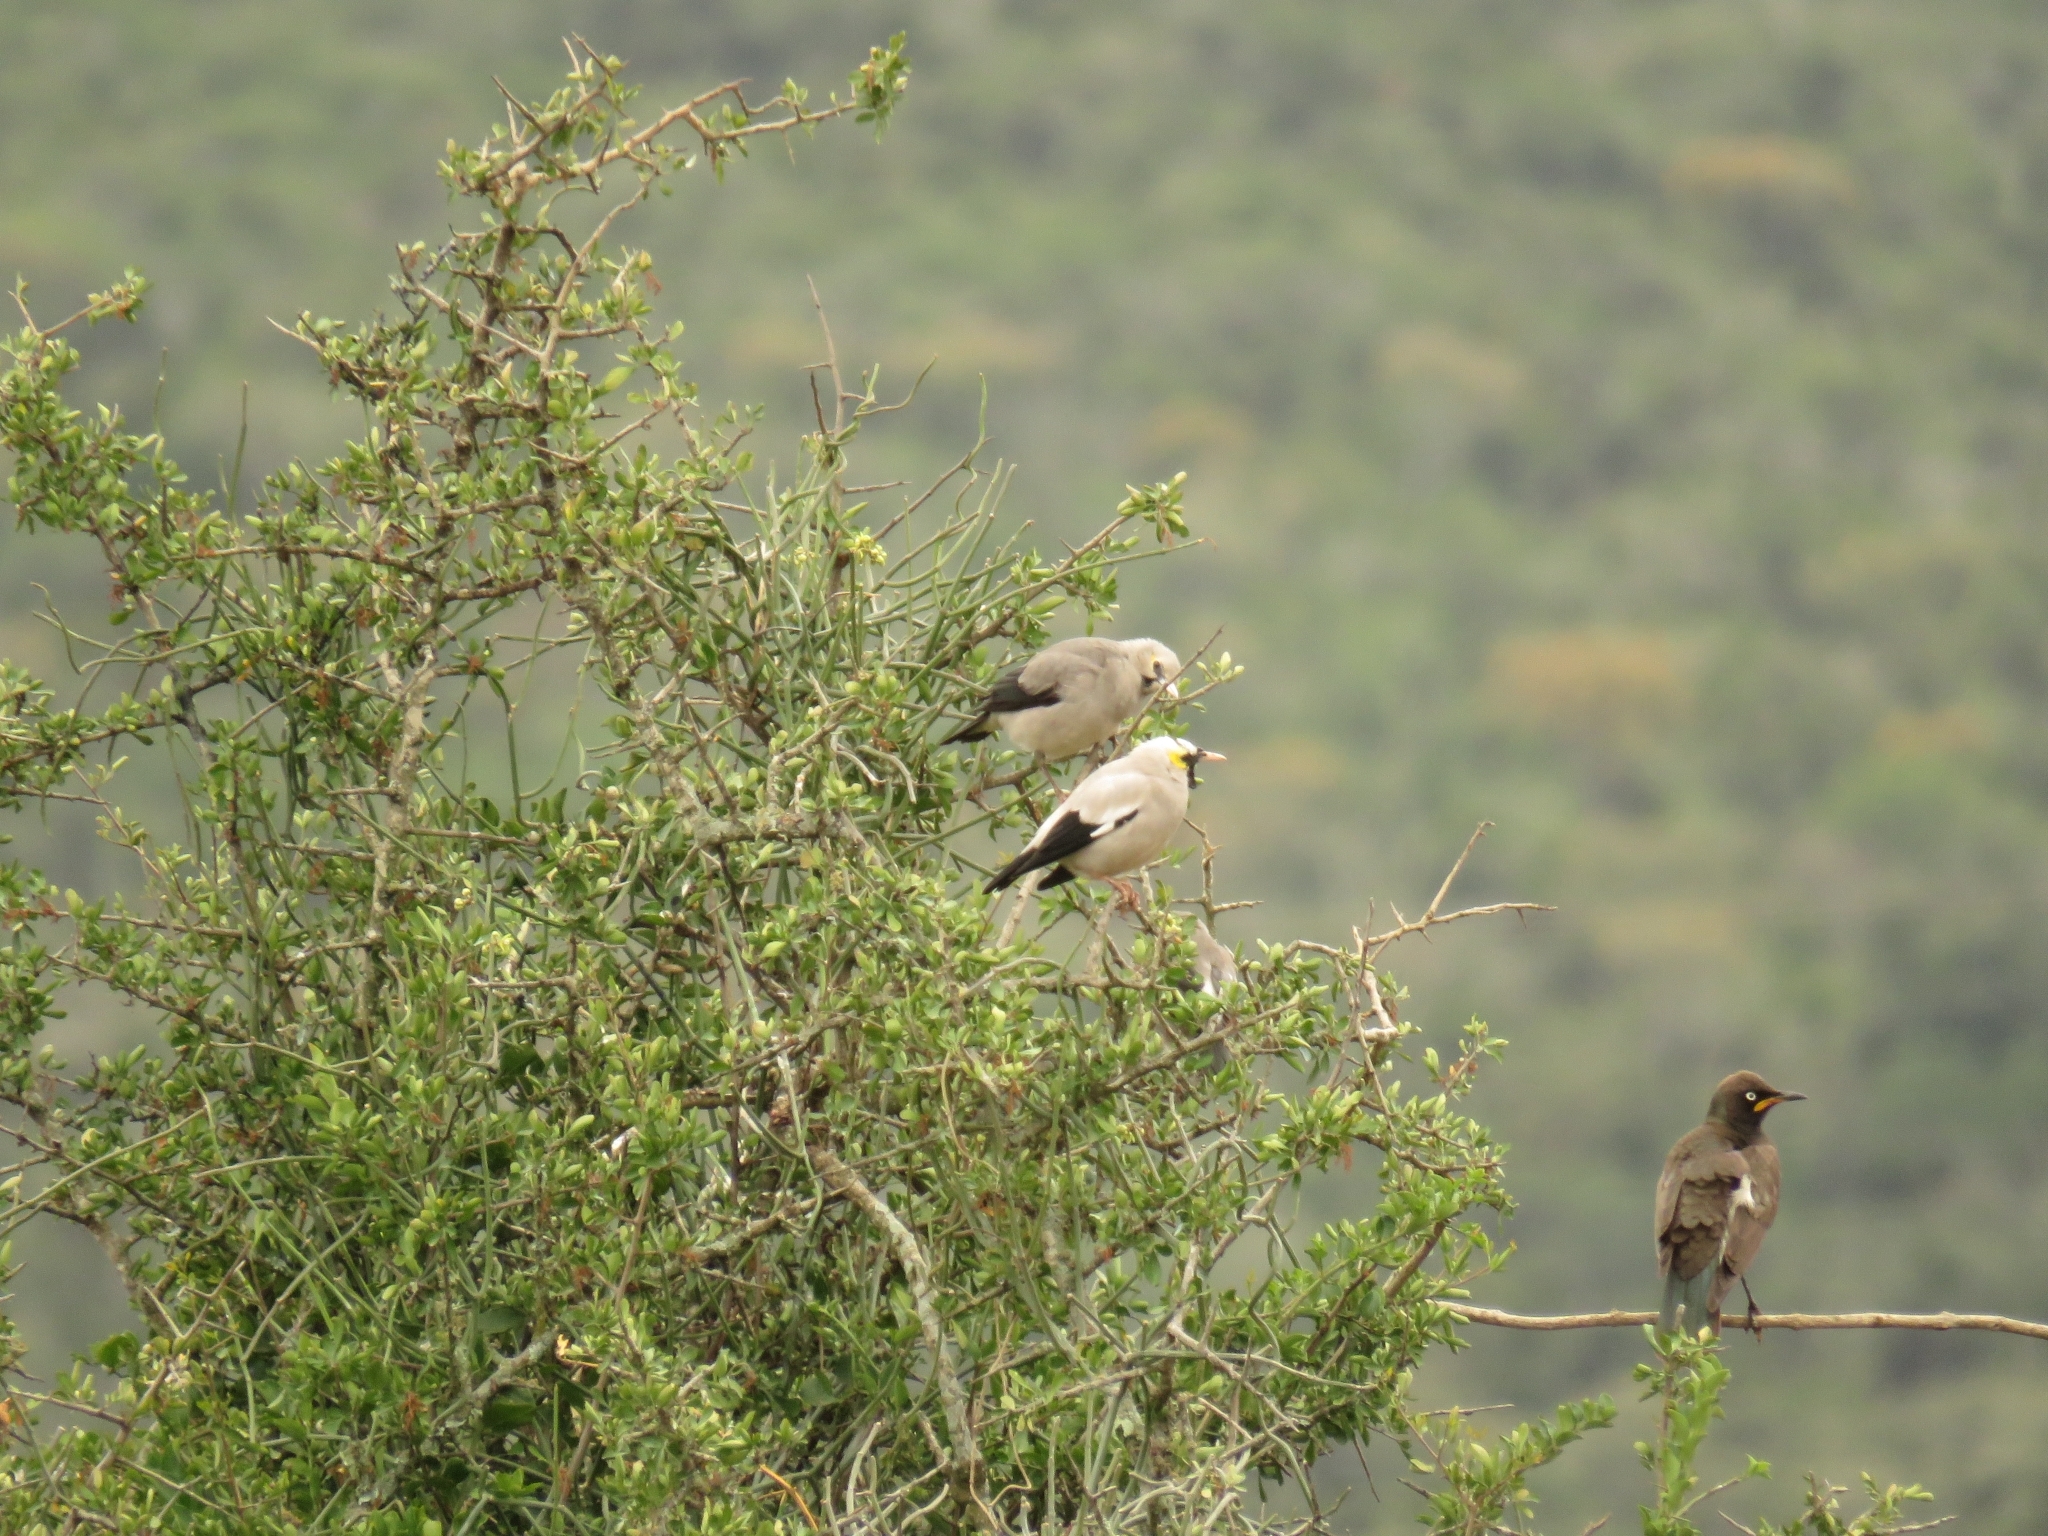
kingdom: Animalia
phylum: Chordata
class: Aves
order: Passeriformes
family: Sturnidae
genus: Creatophora
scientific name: Creatophora cinerea
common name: Wattled starling
